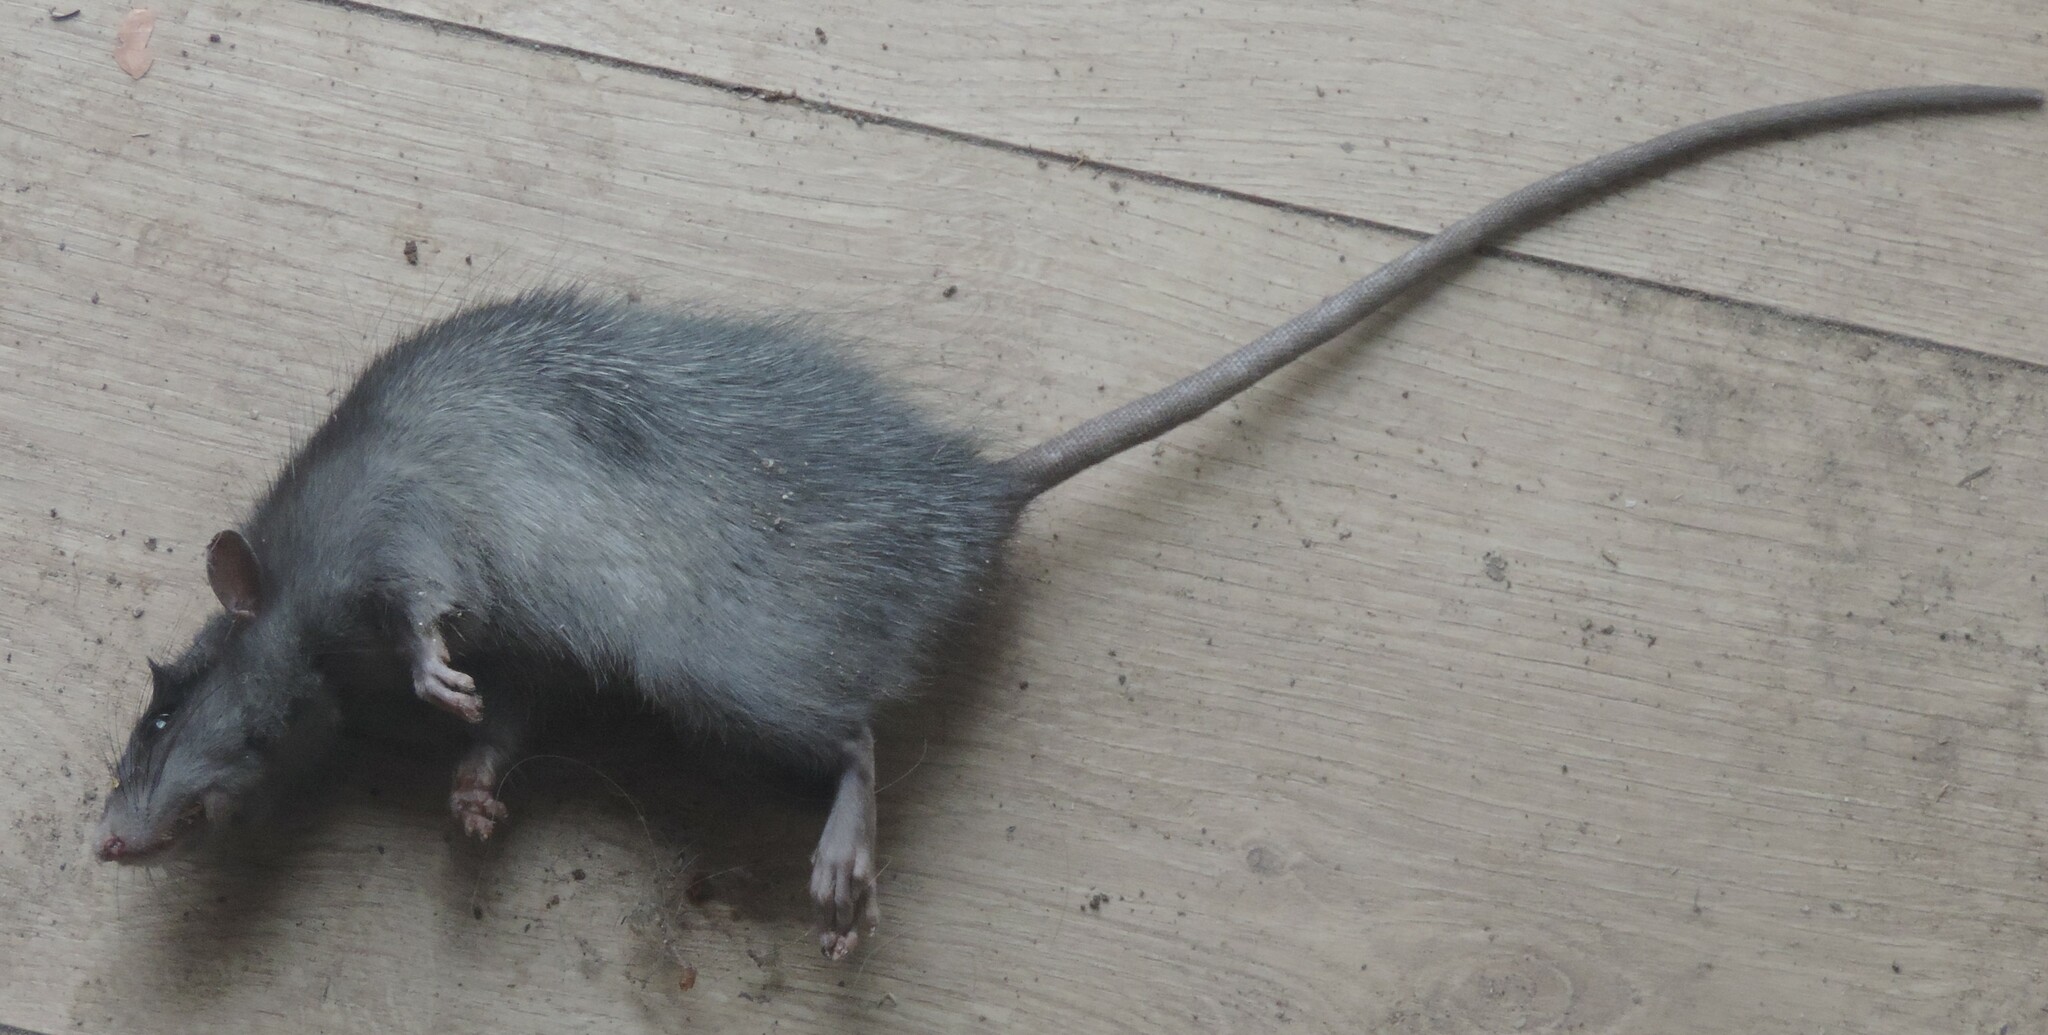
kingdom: Animalia
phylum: Chordata
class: Mammalia
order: Rodentia
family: Muridae
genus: Rattus
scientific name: Rattus rattus
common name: Black rat
